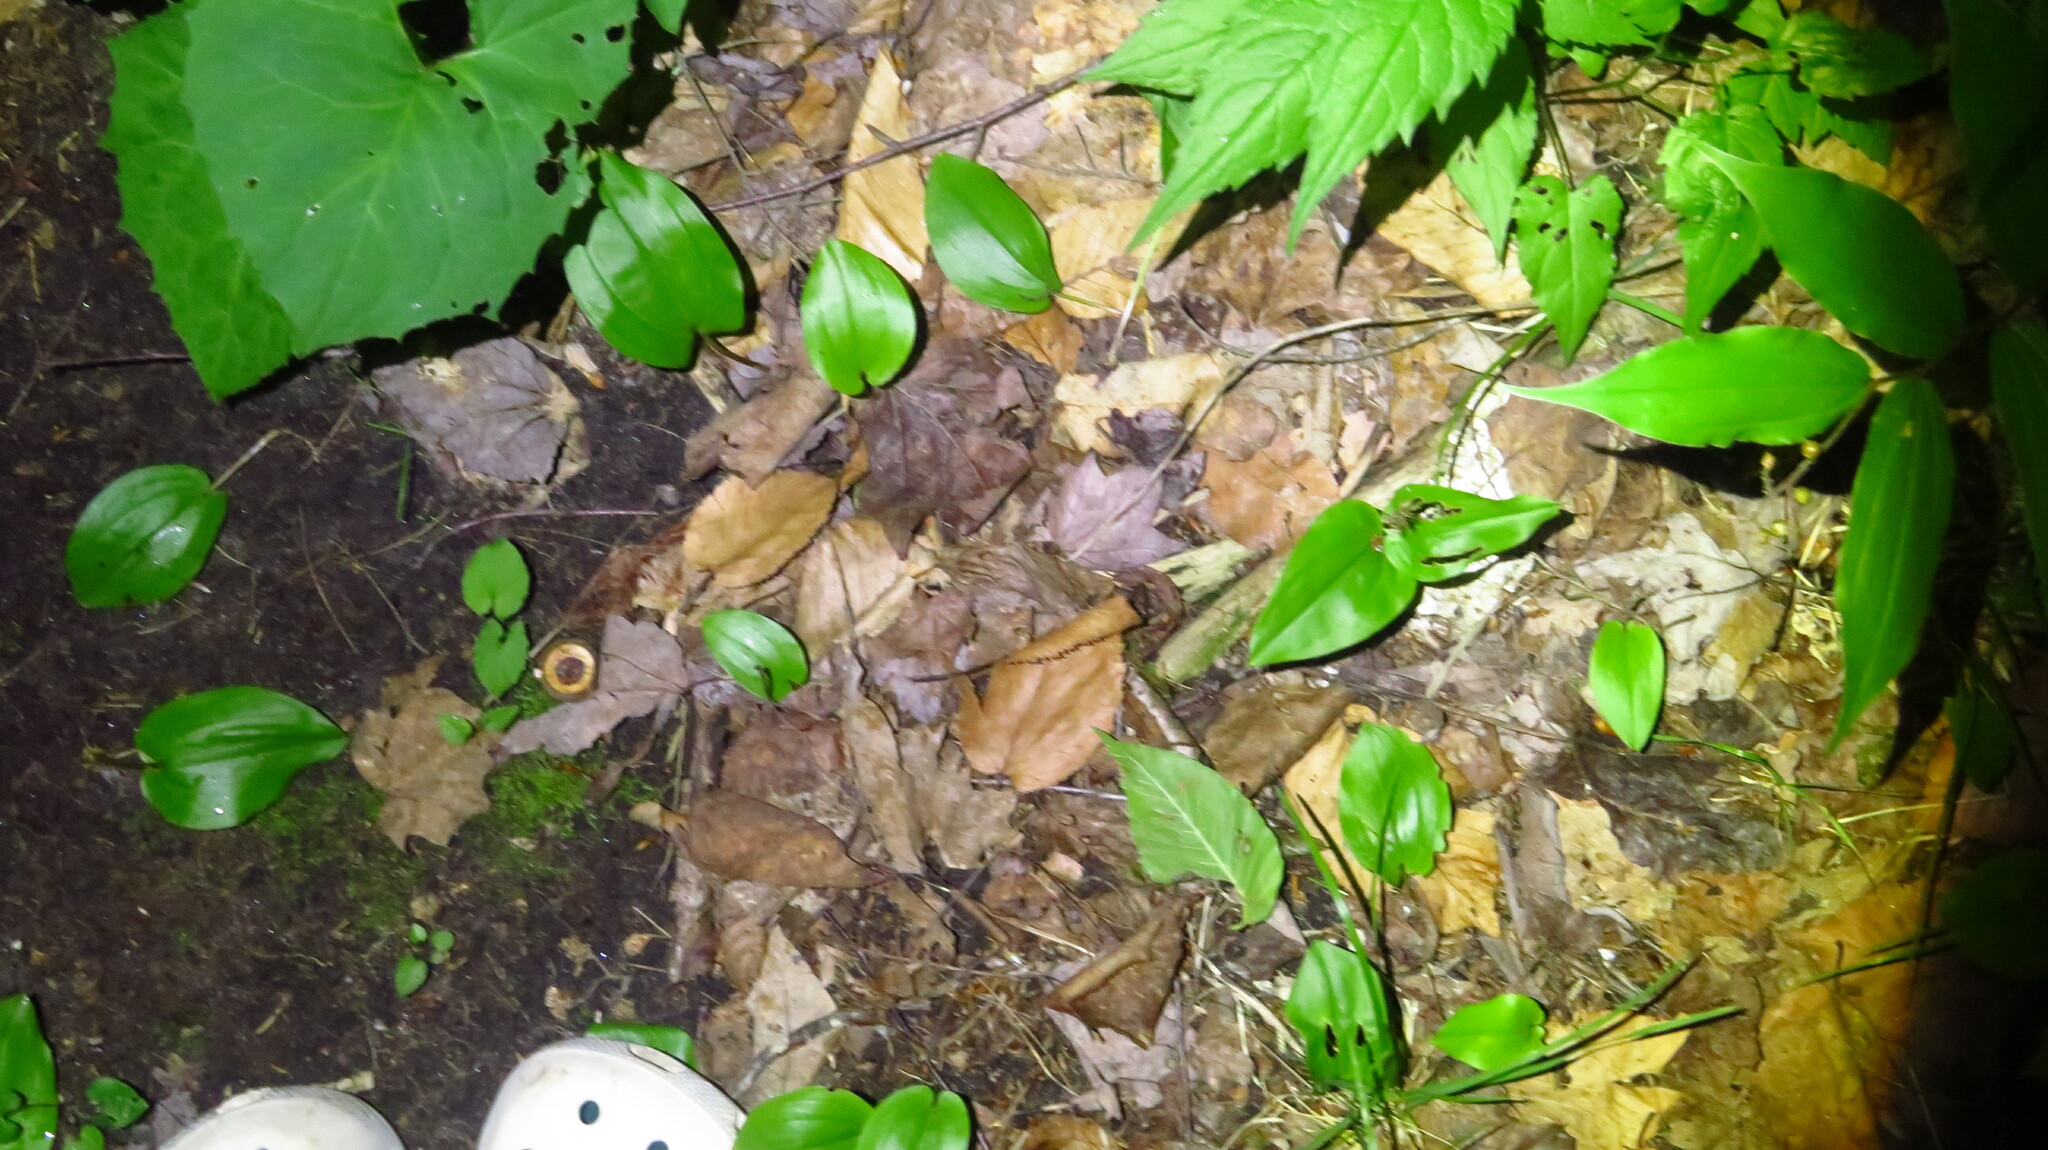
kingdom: Plantae
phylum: Tracheophyta
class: Liliopsida
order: Asparagales
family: Asparagaceae
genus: Maianthemum
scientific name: Maianthemum canadense
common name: False lily-of-the-valley
